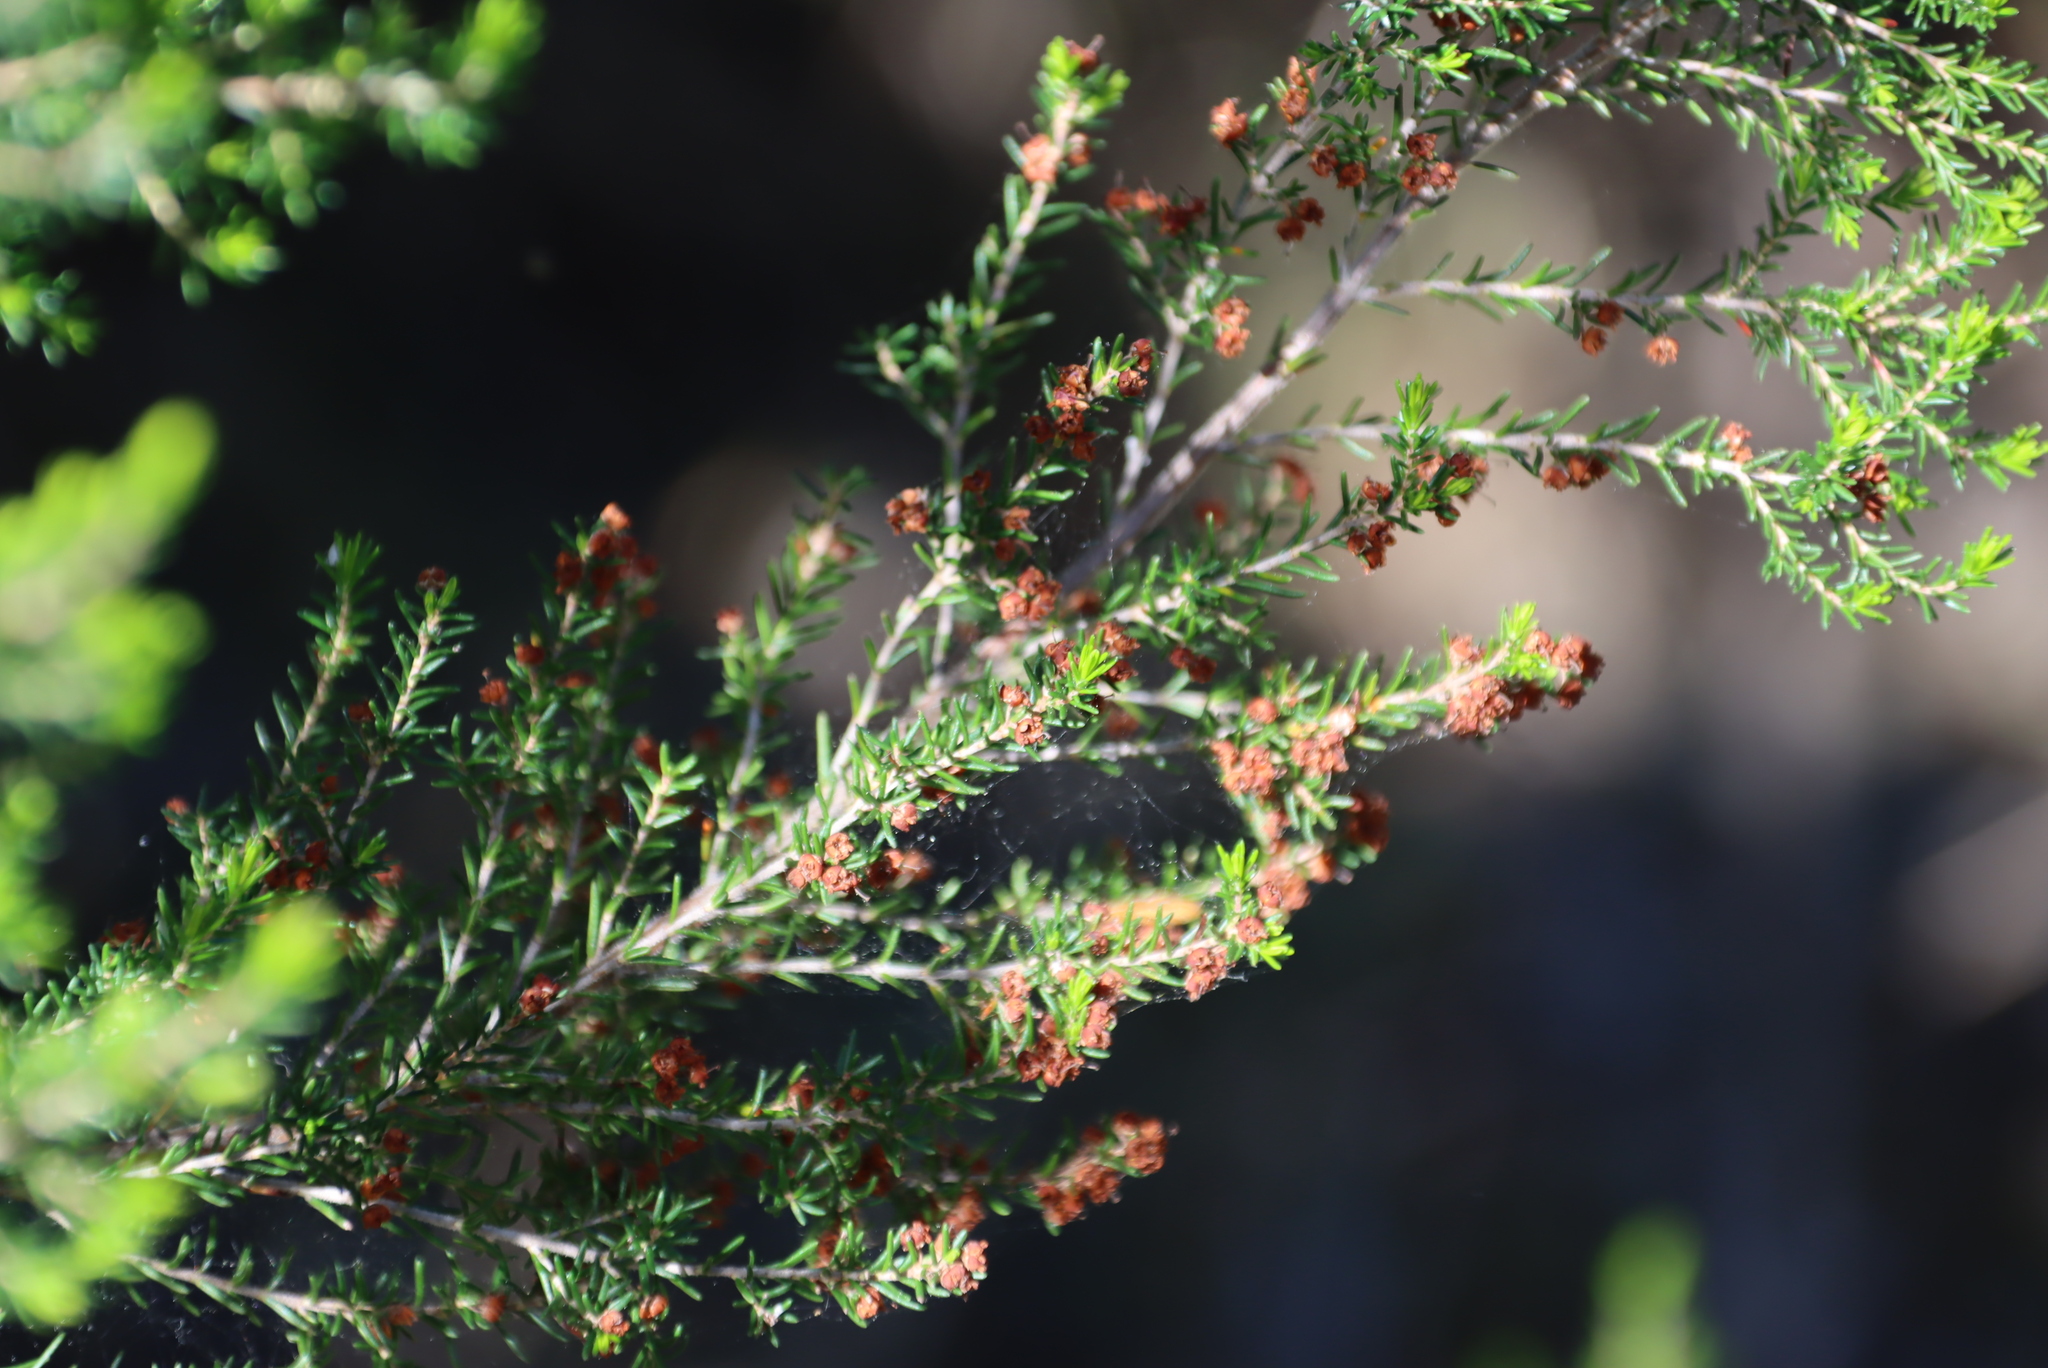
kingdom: Plantae
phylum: Tracheophyta
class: Magnoliopsida
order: Ericales
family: Ericaceae
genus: Erica
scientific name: Erica sparsa
